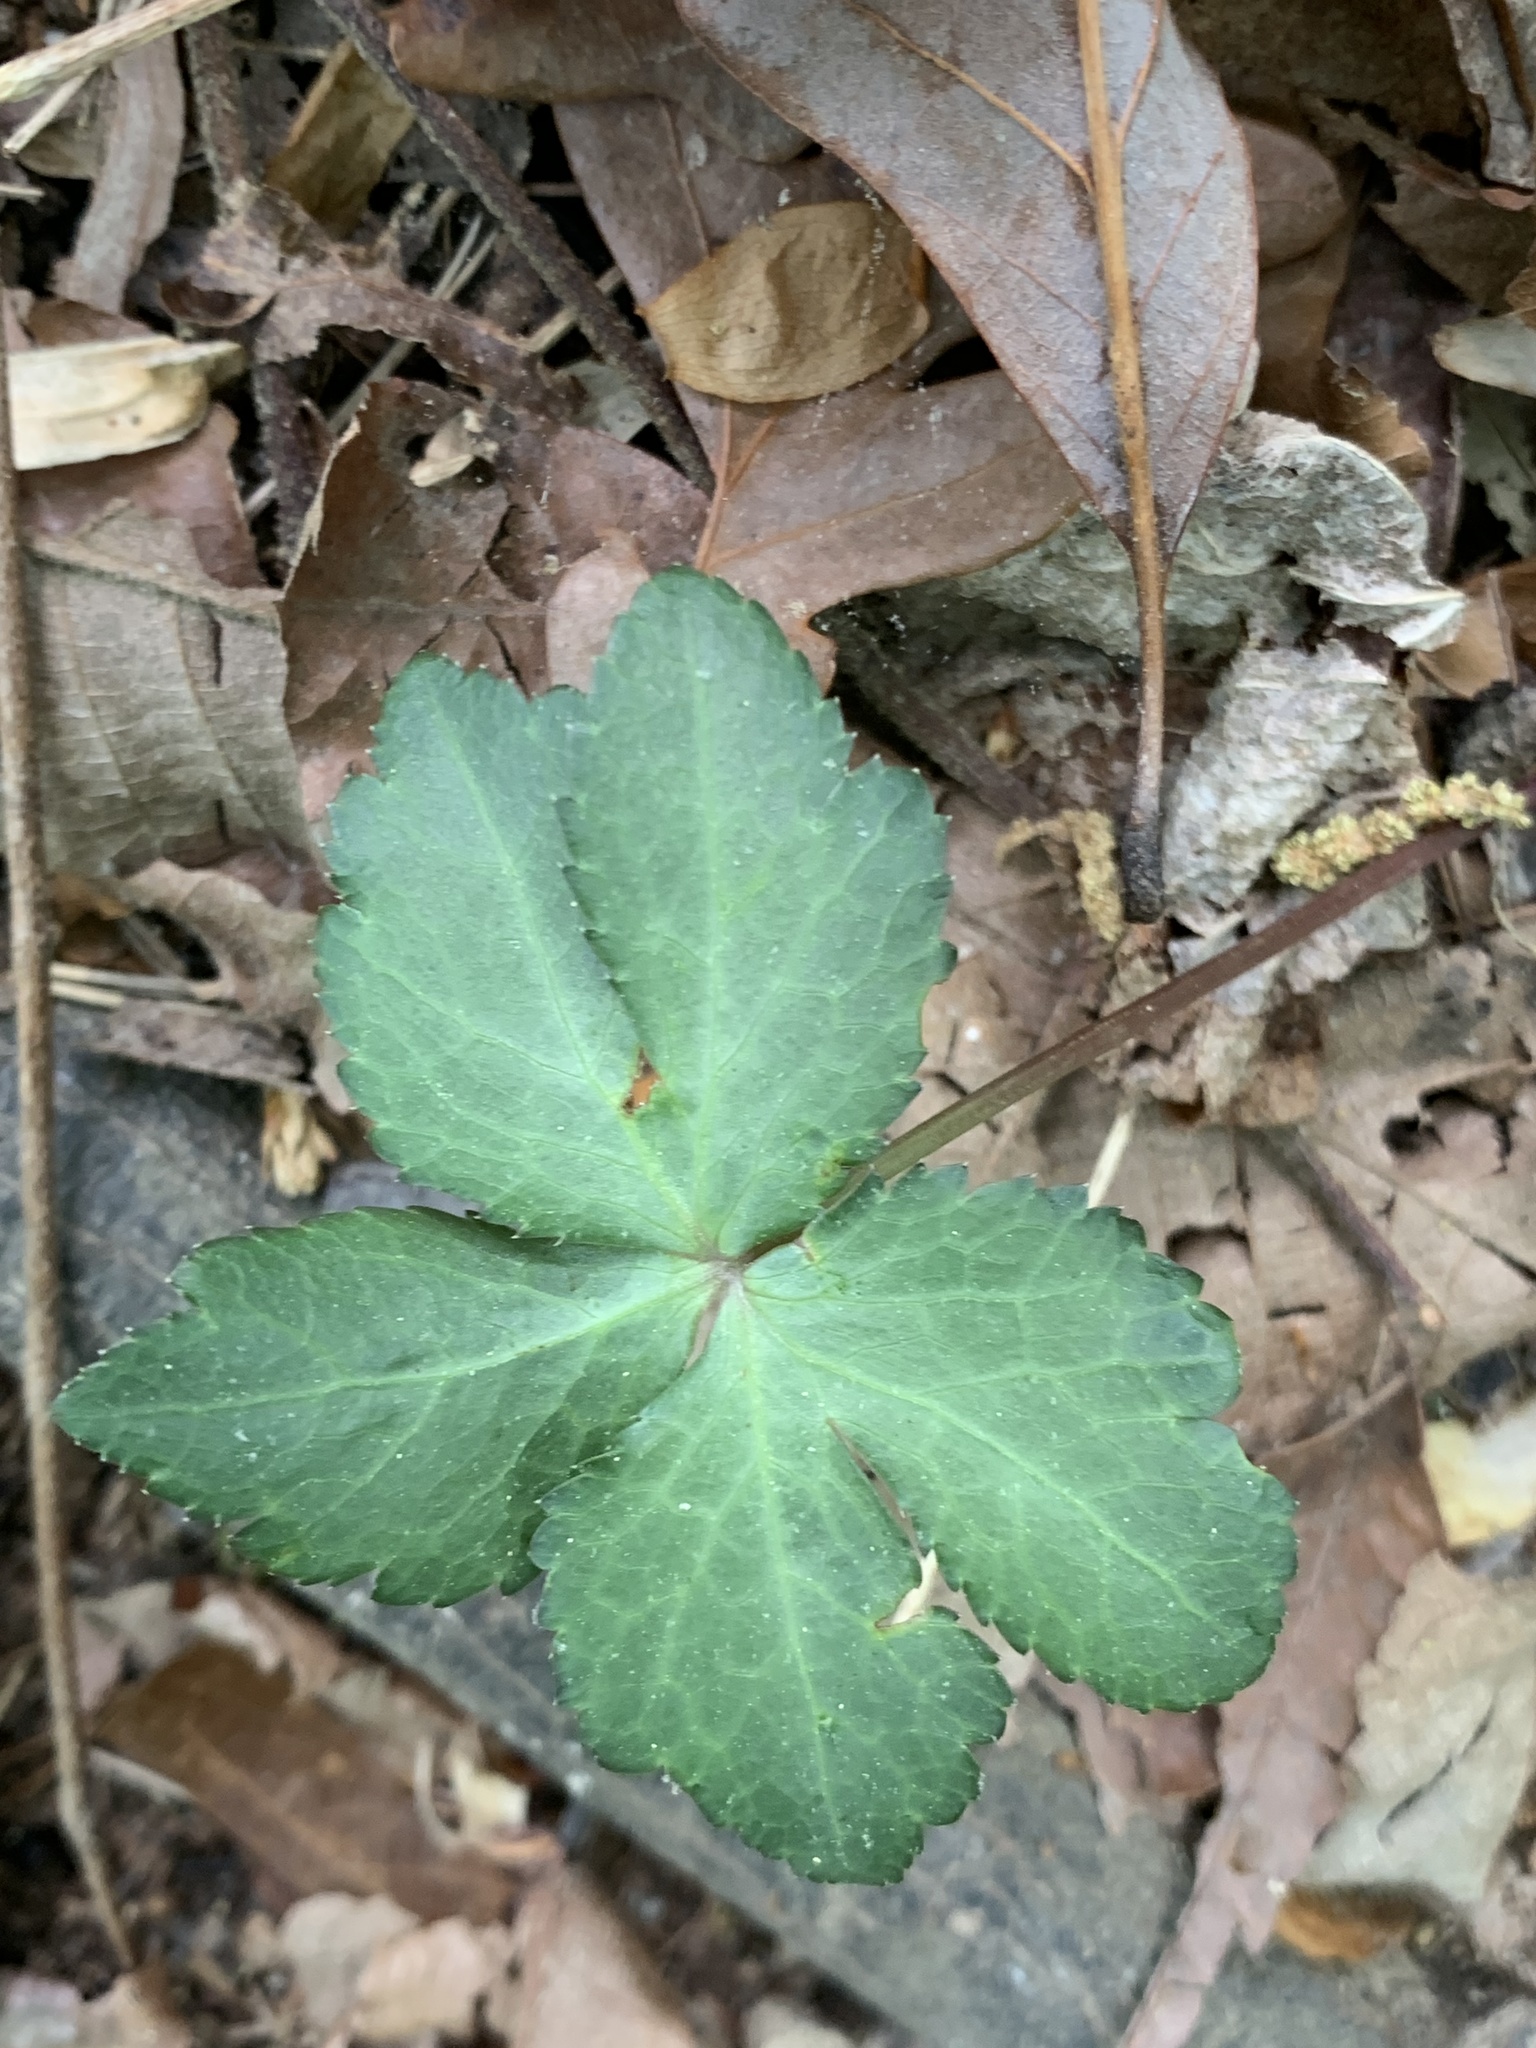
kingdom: Plantae
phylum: Tracheophyta
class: Magnoliopsida
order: Apiales
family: Apiaceae
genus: Sanicula
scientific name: Sanicula smallii
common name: Small's black snakeroot
